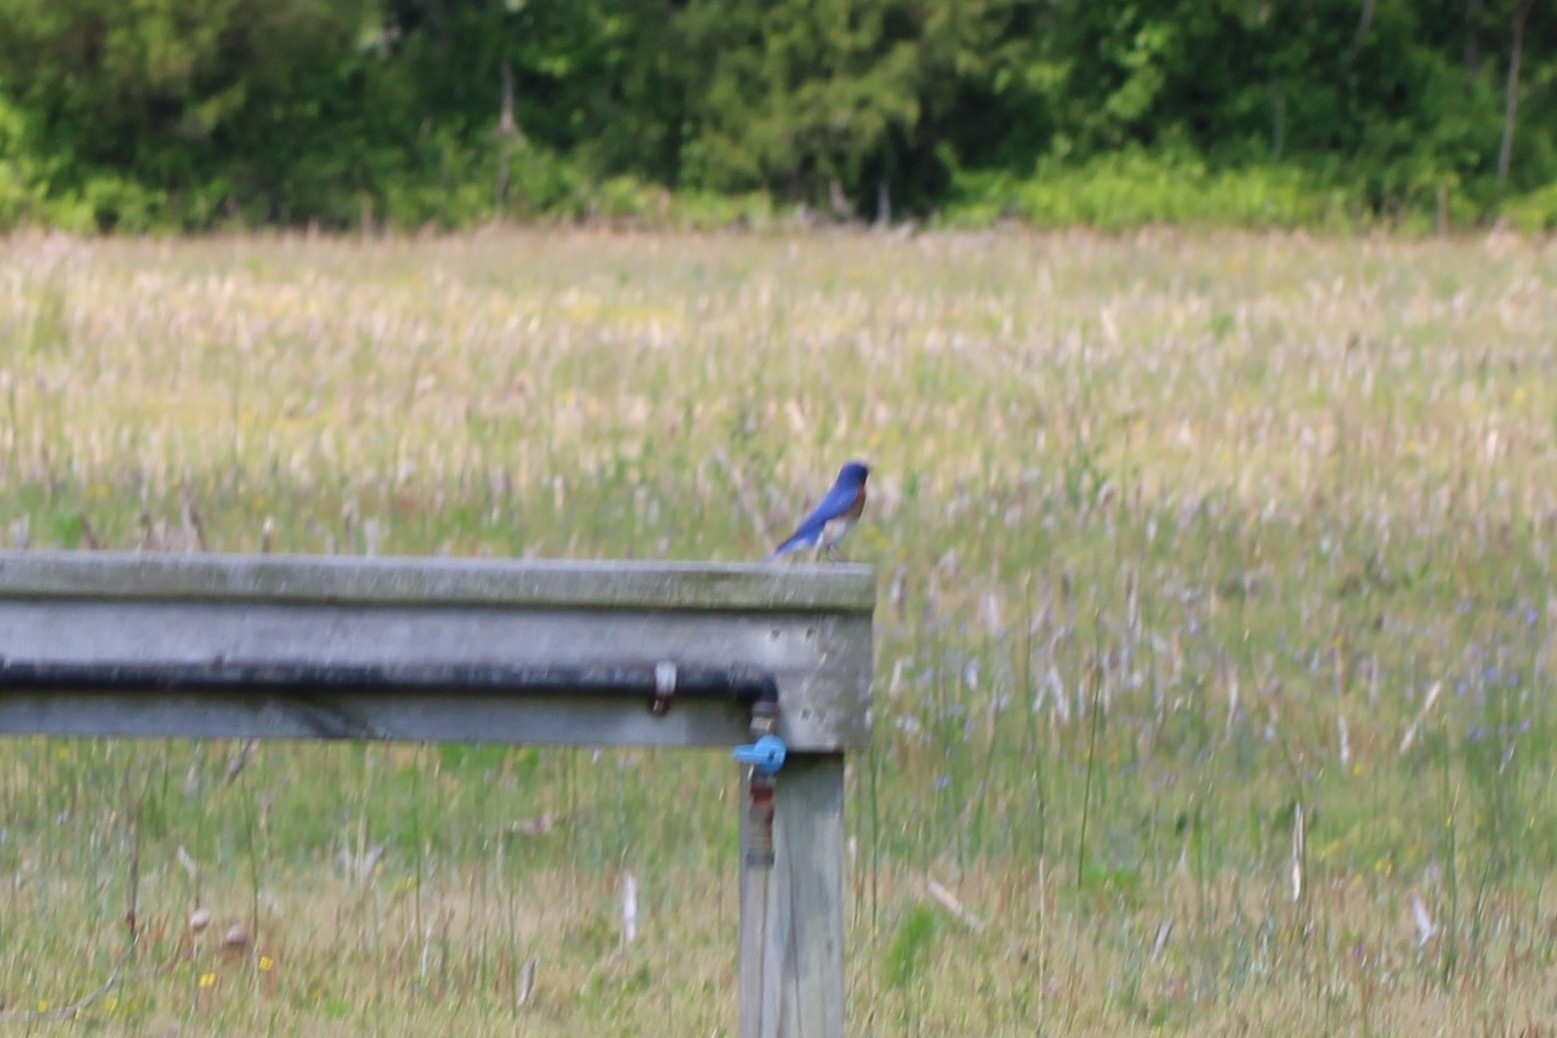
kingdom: Animalia
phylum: Chordata
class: Aves
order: Passeriformes
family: Turdidae
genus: Sialia
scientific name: Sialia sialis
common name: Eastern bluebird
